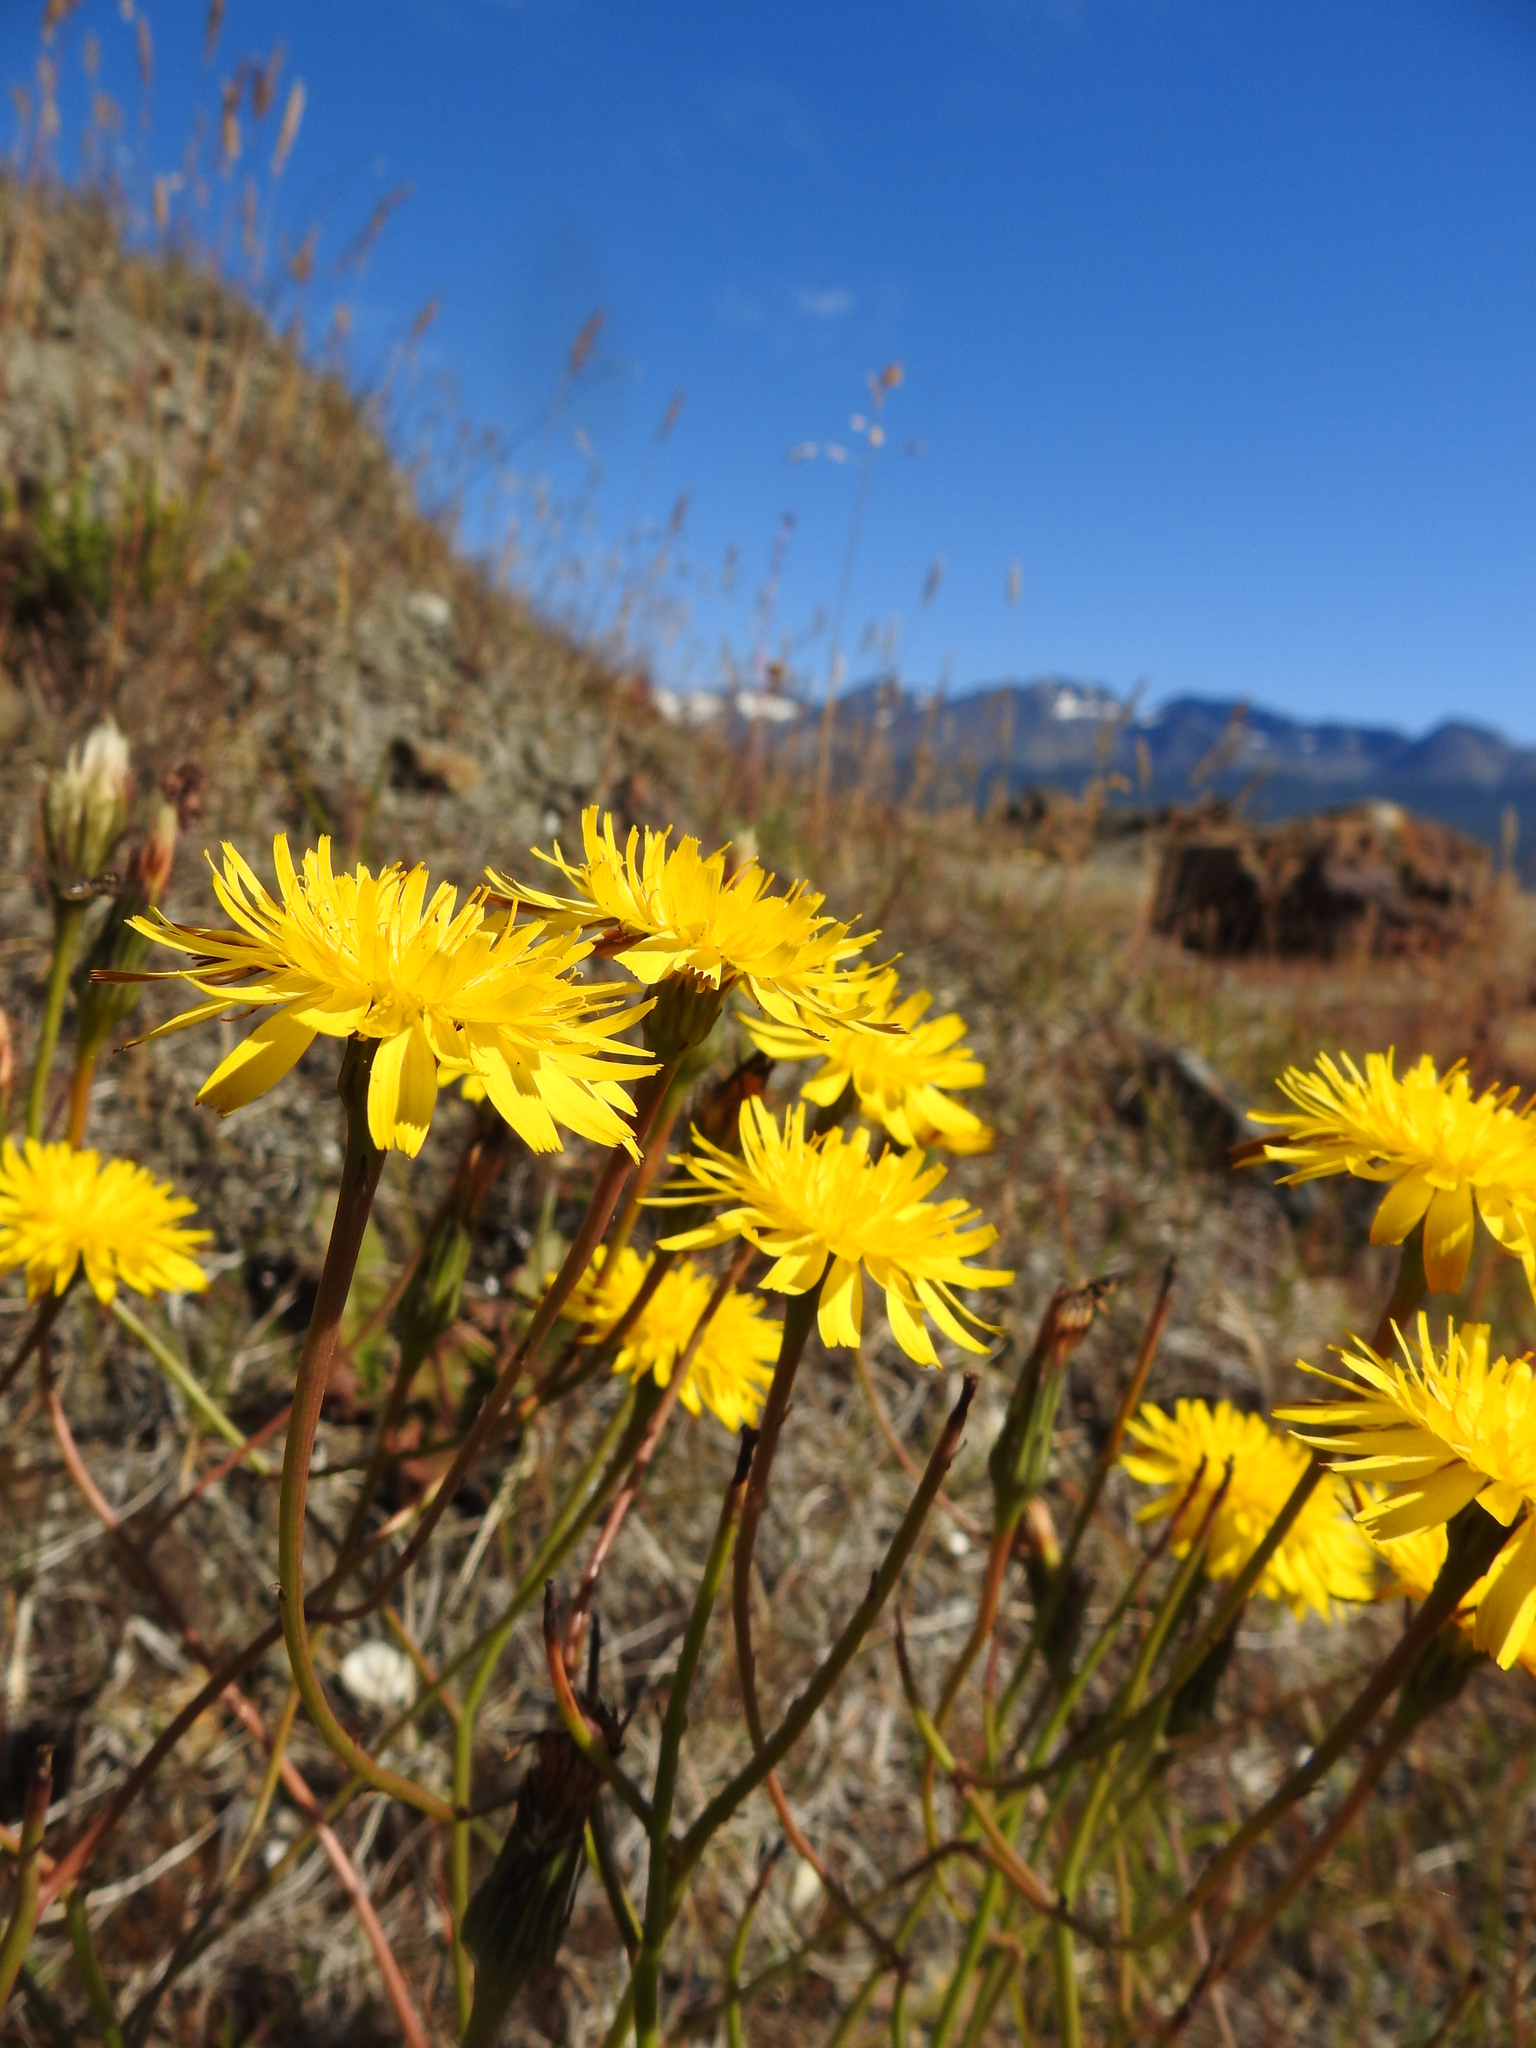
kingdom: Plantae
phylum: Tracheophyta
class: Magnoliopsida
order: Asterales
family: Asteraceae
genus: Hypochaeris
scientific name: Hypochaeris radicata
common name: Flatweed
